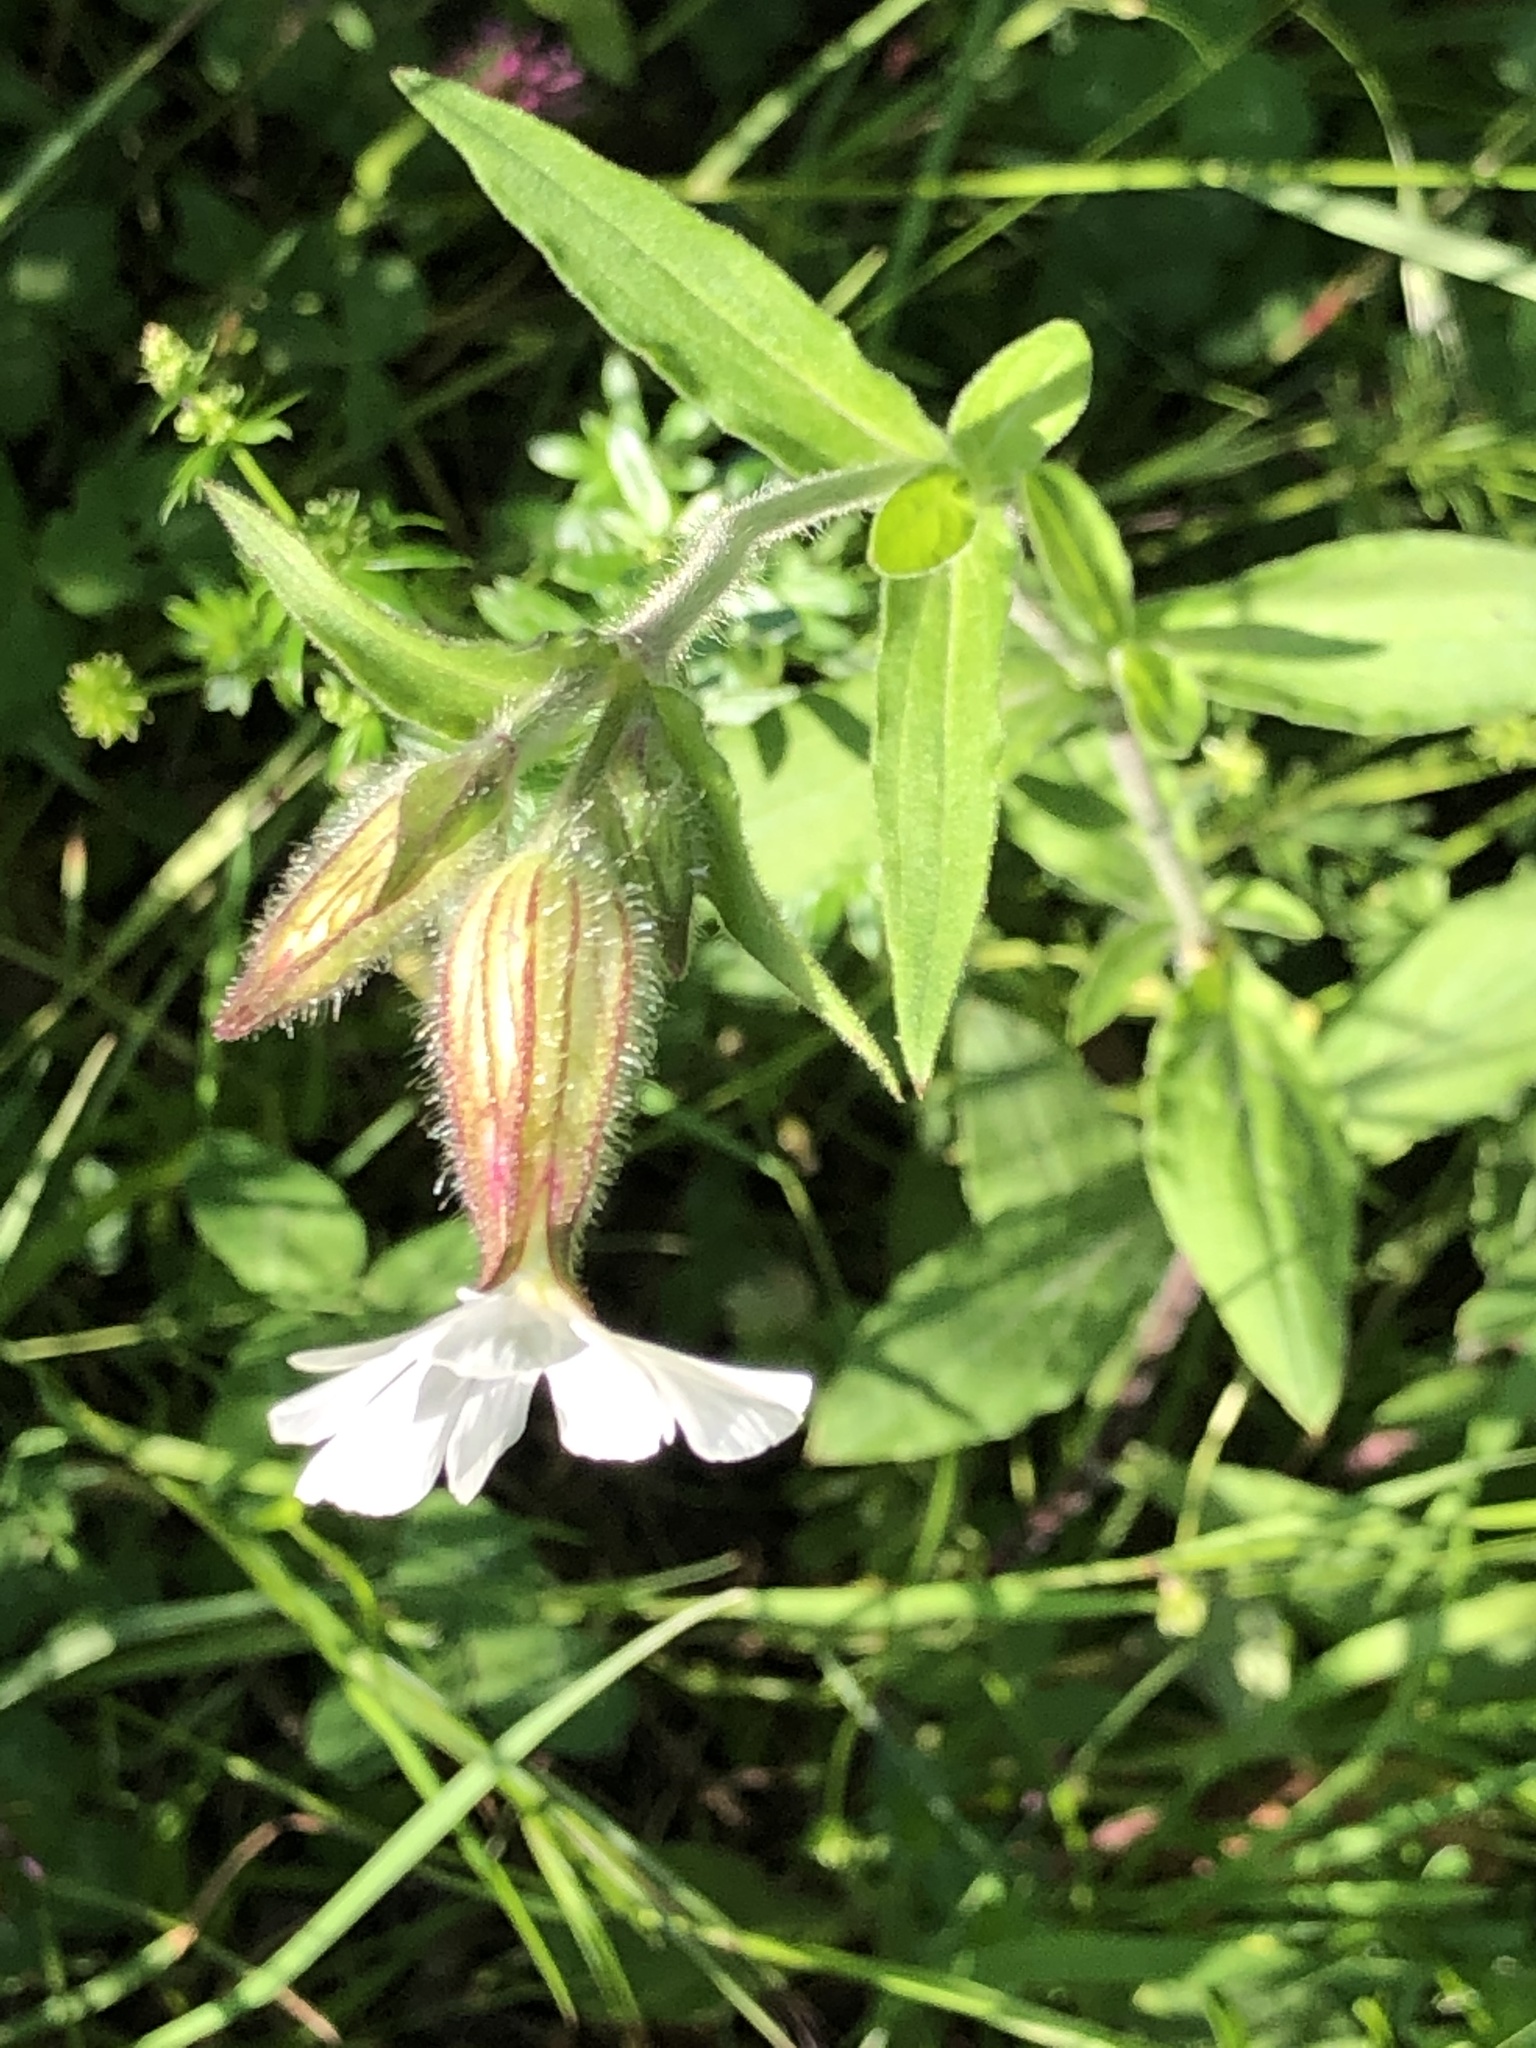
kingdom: Plantae
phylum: Tracheophyta
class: Magnoliopsida
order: Caryophyllales
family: Caryophyllaceae
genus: Silene
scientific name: Silene latifolia
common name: White campion
